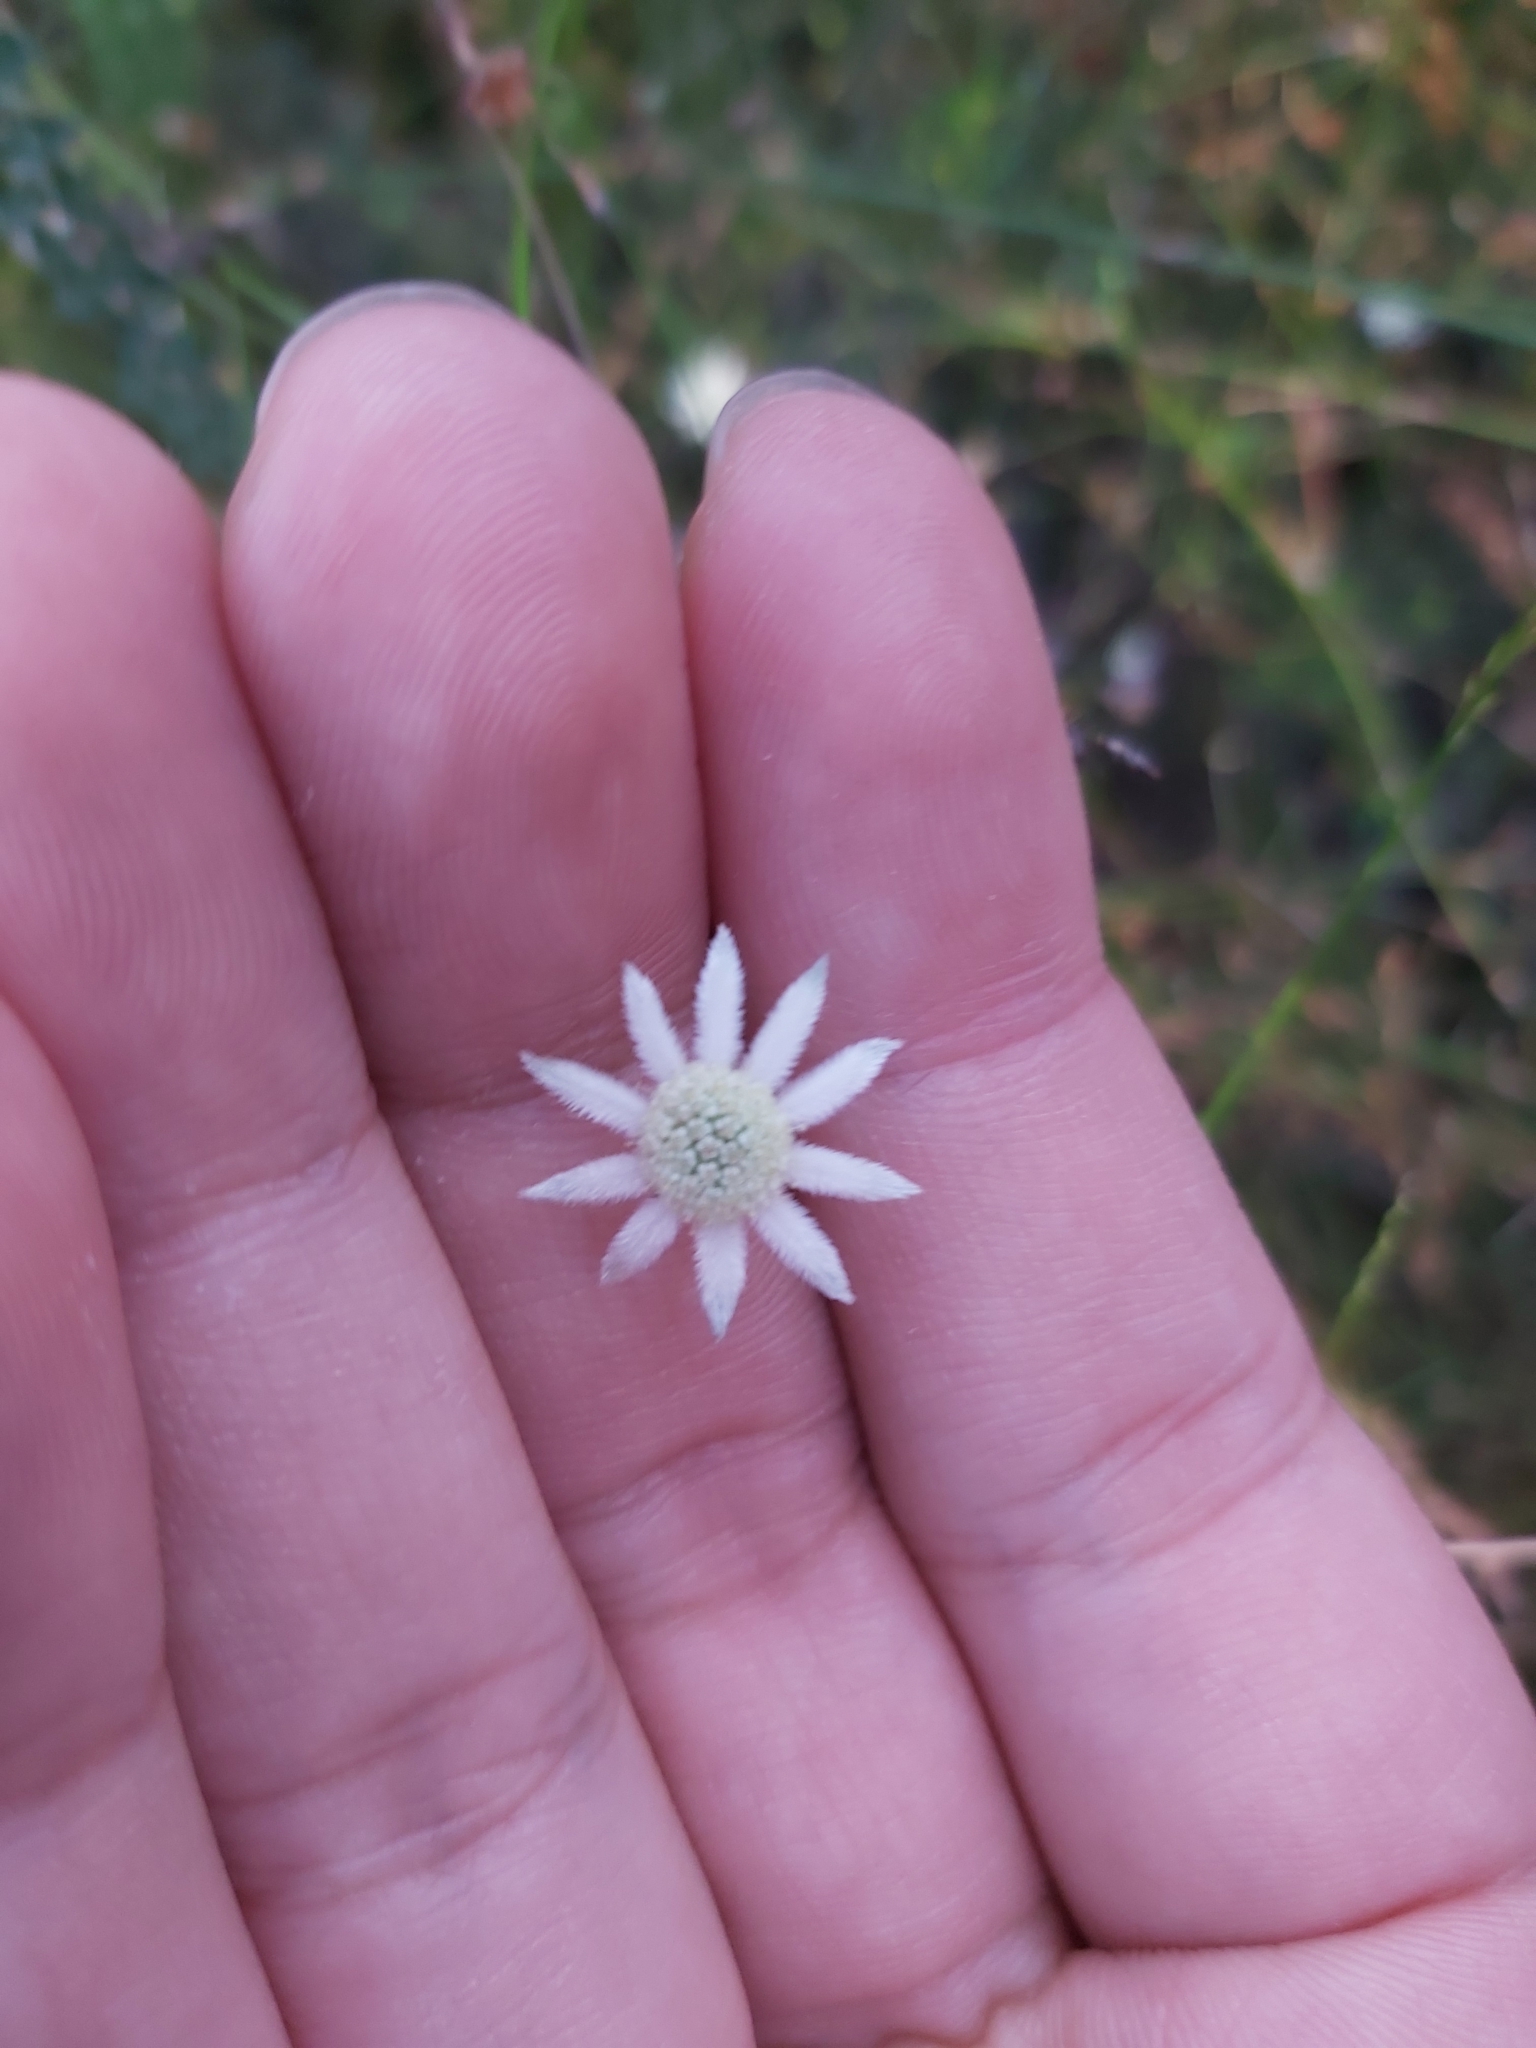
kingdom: Plantae
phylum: Tracheophyta
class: Magnoliopsida
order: Apiales
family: Apiaceae
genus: Actinotus
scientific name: Actinotus minor
